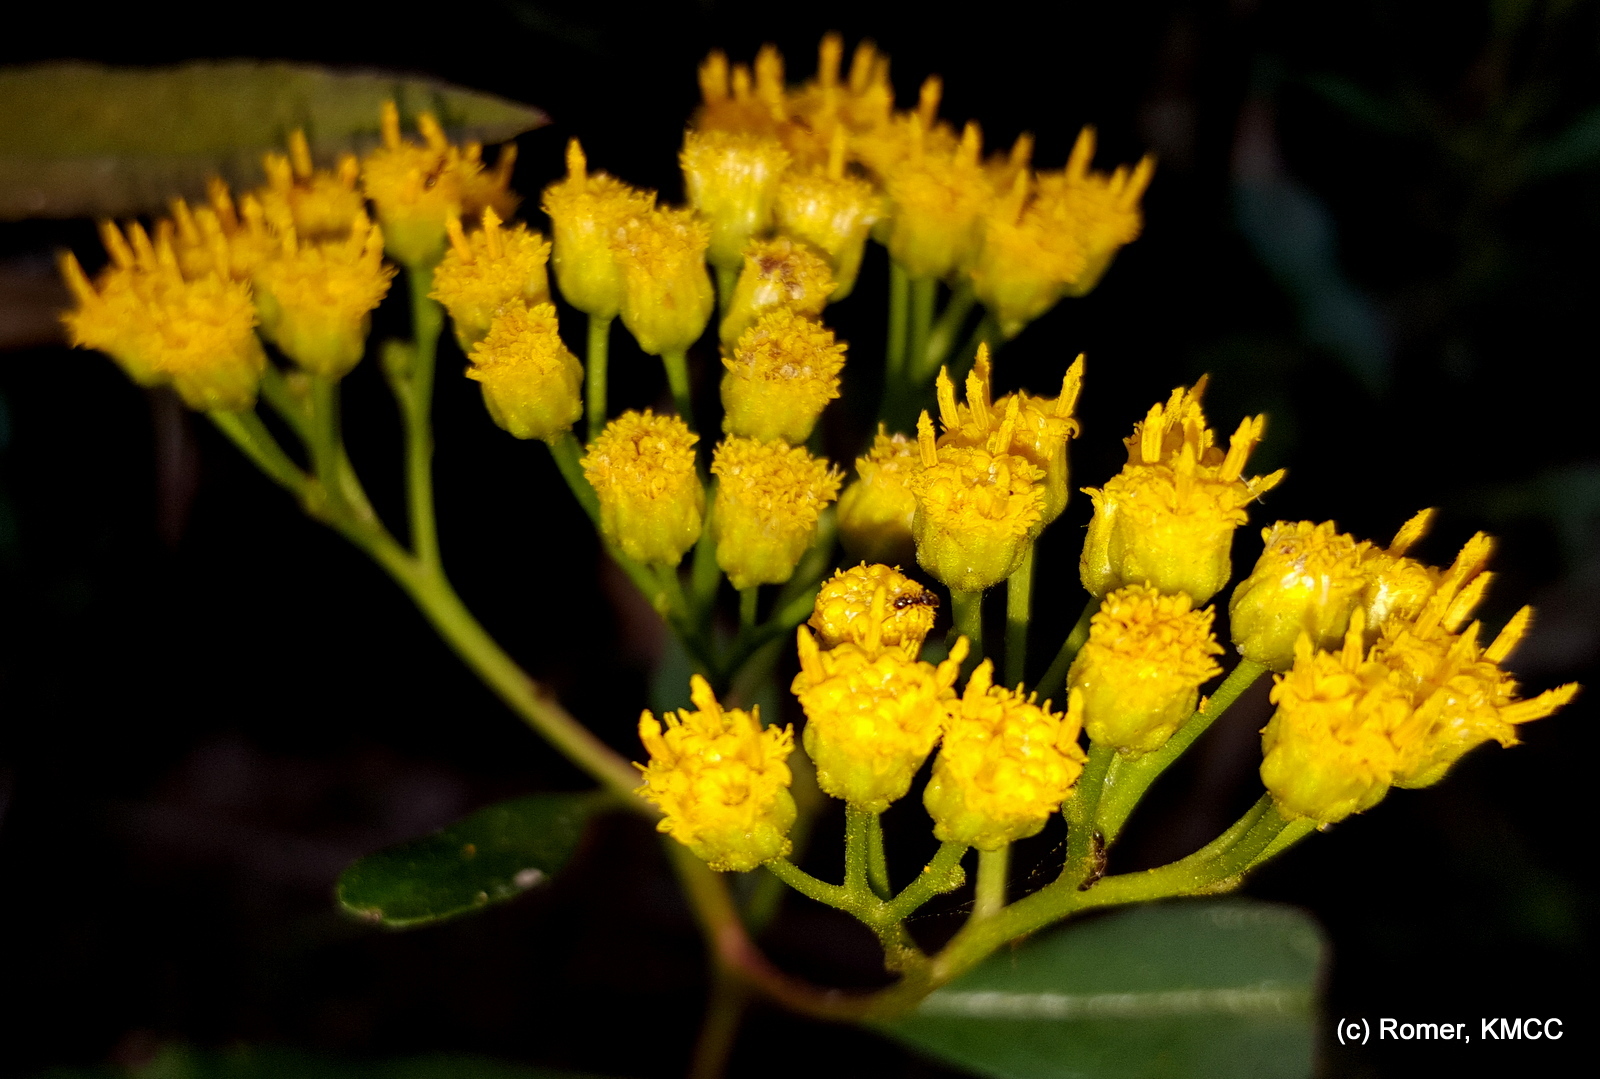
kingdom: Plantae
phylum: Tracheophyta
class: Magnoliopsida
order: Asterales
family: Asteraceae
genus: Psiadia
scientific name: Psiadia altissima
